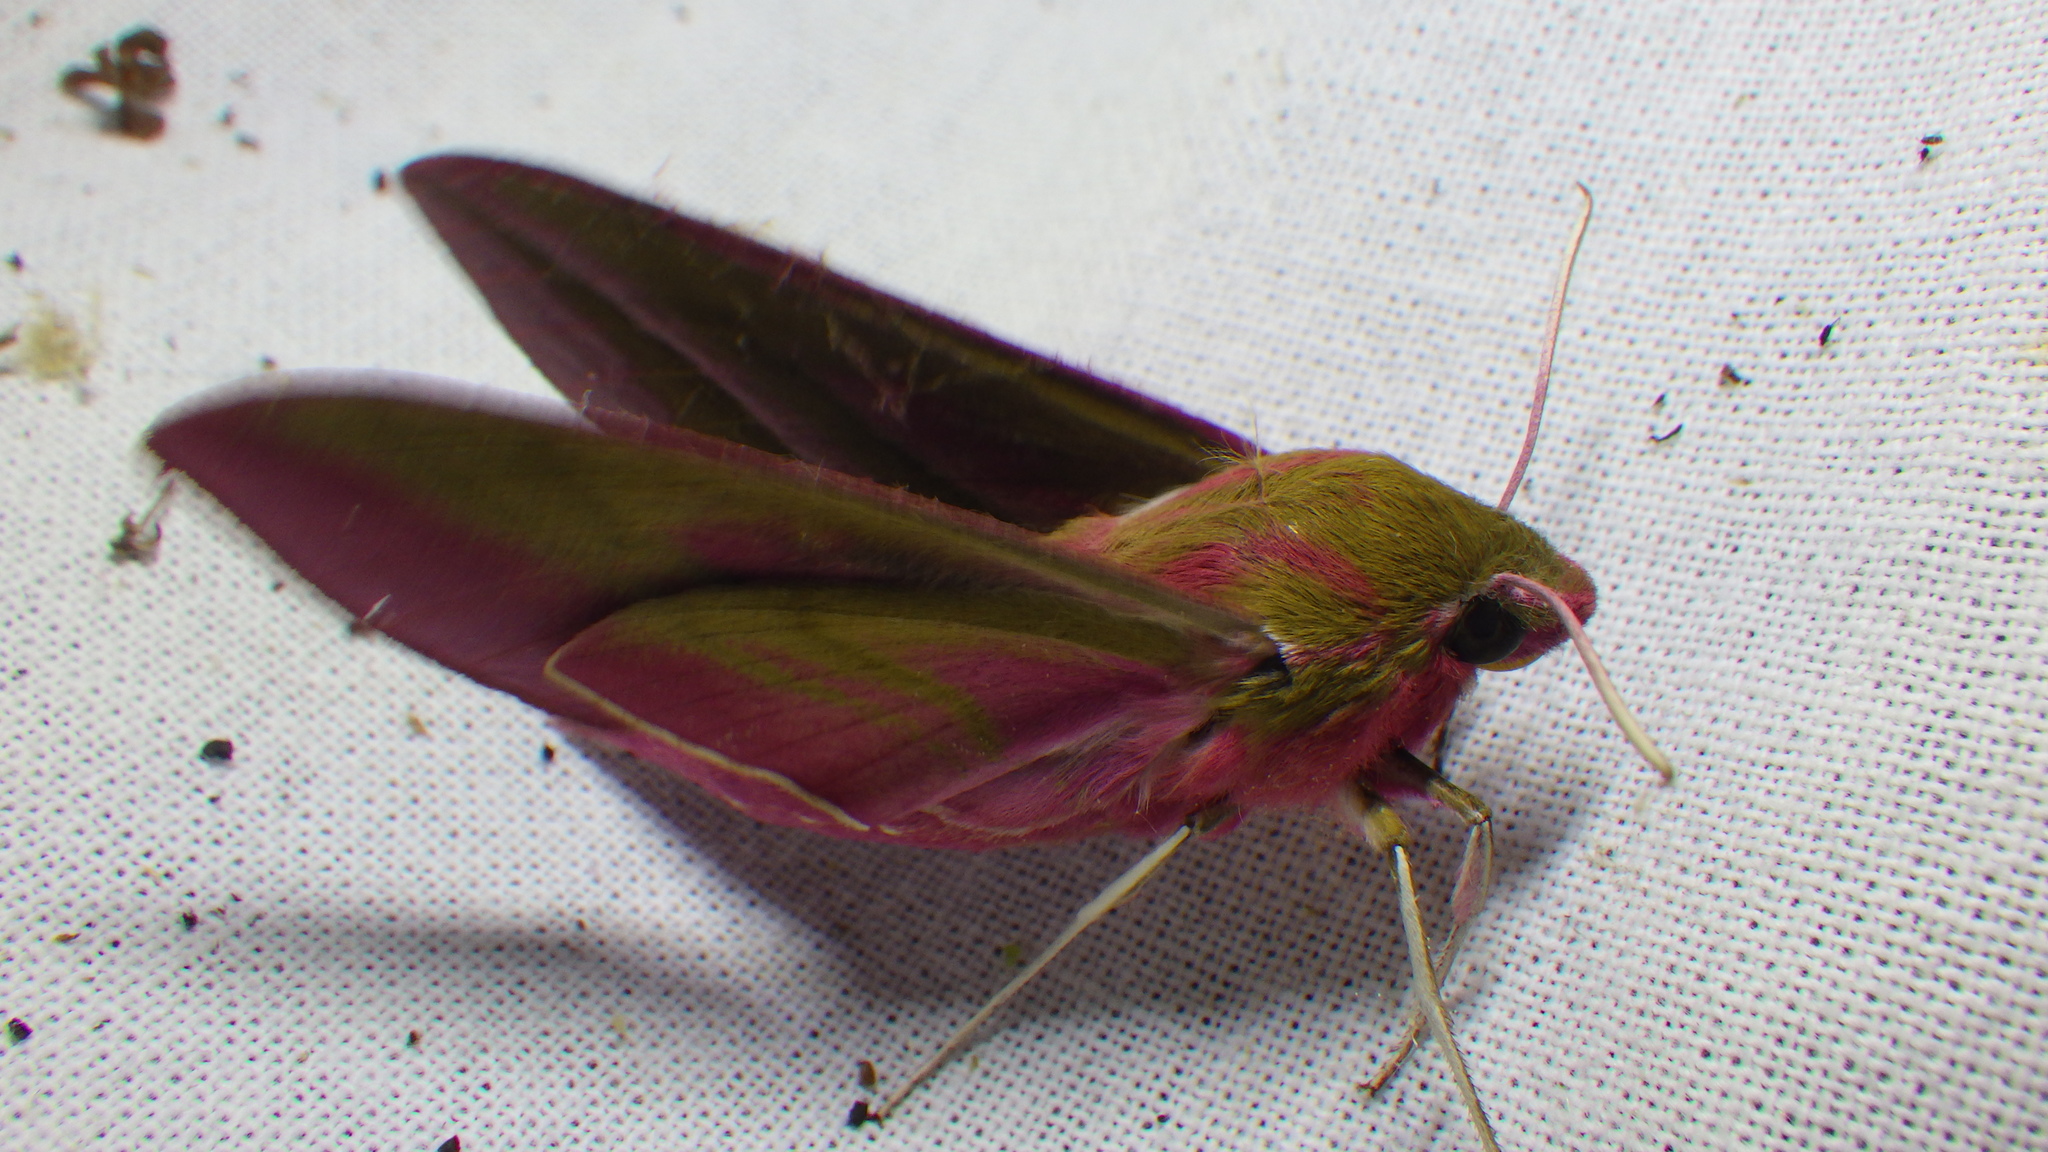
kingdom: Animalia
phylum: Arthropoda
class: Insecta
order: Lepidoptera
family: Sphingidae
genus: Deilephila
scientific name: Deilephila elpenor
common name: Elephant hawk-moth
